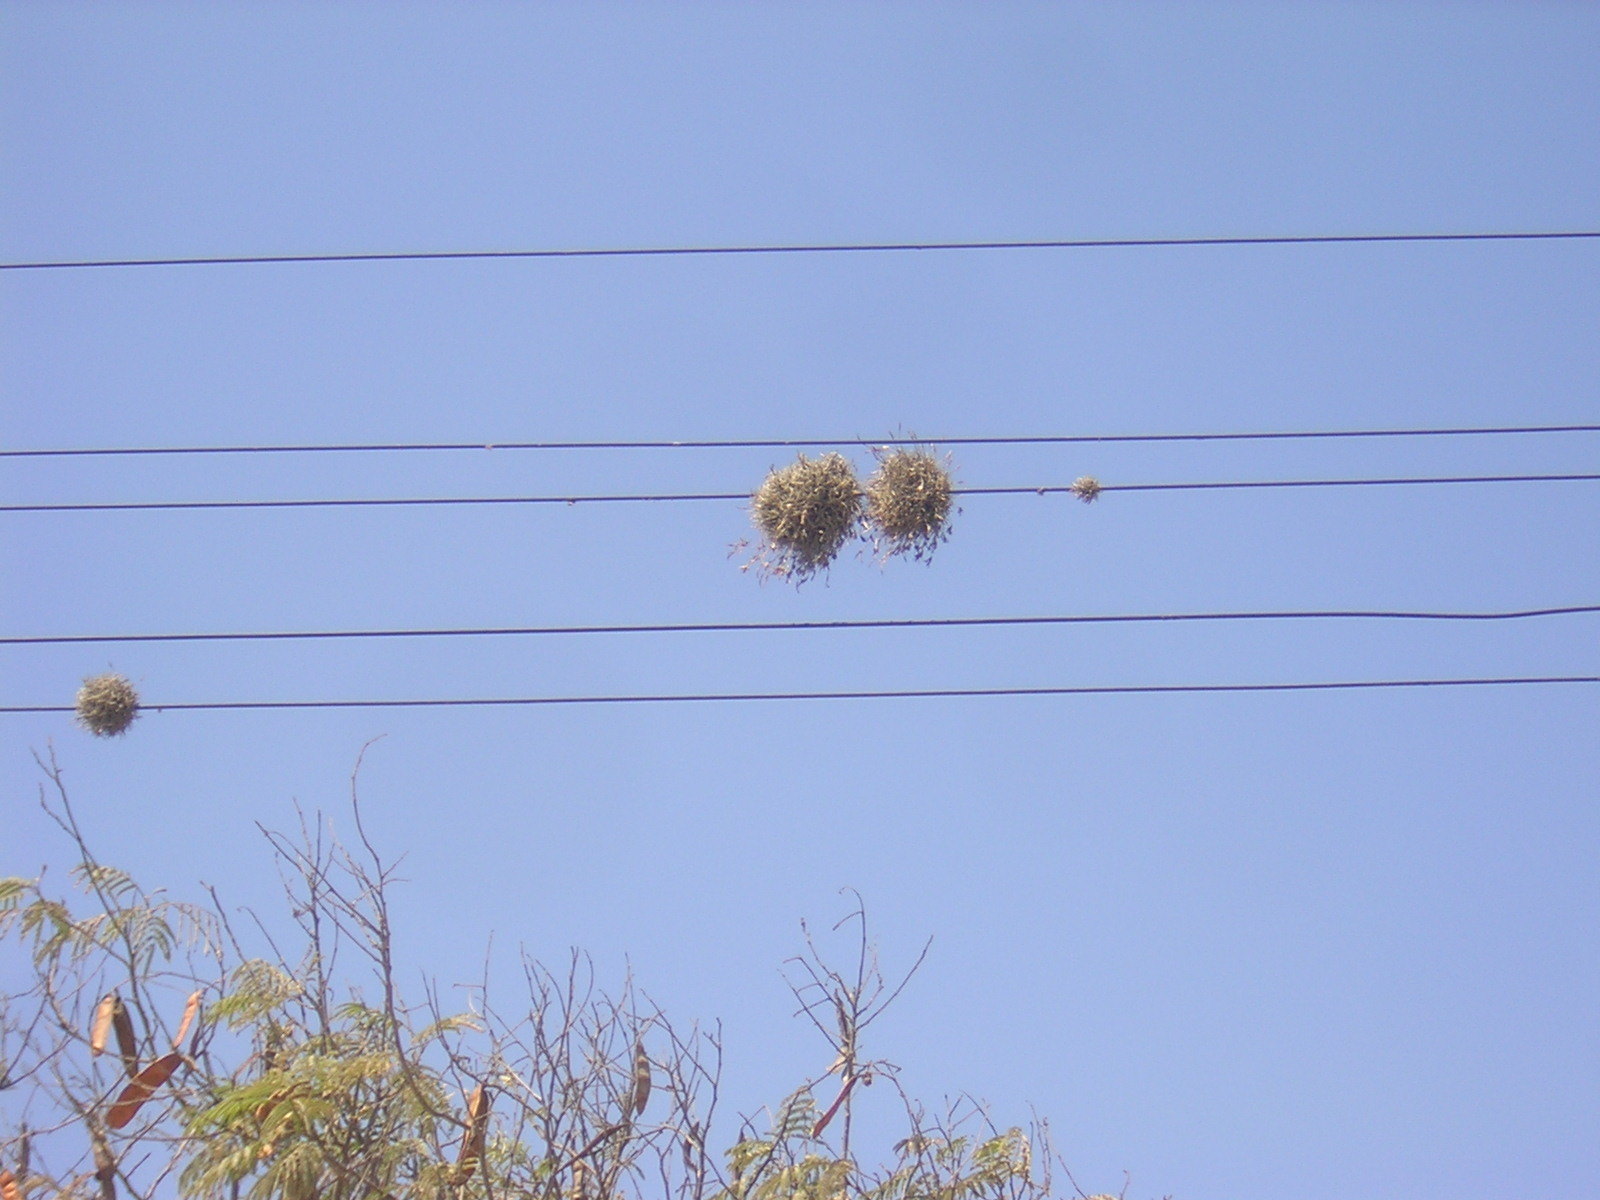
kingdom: Plantae
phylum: Tracheophyta
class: Liliopsida
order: Poales
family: Bromeliaceae
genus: Tillandsia
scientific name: Tillandsia recurvata
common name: Small ballmoss
